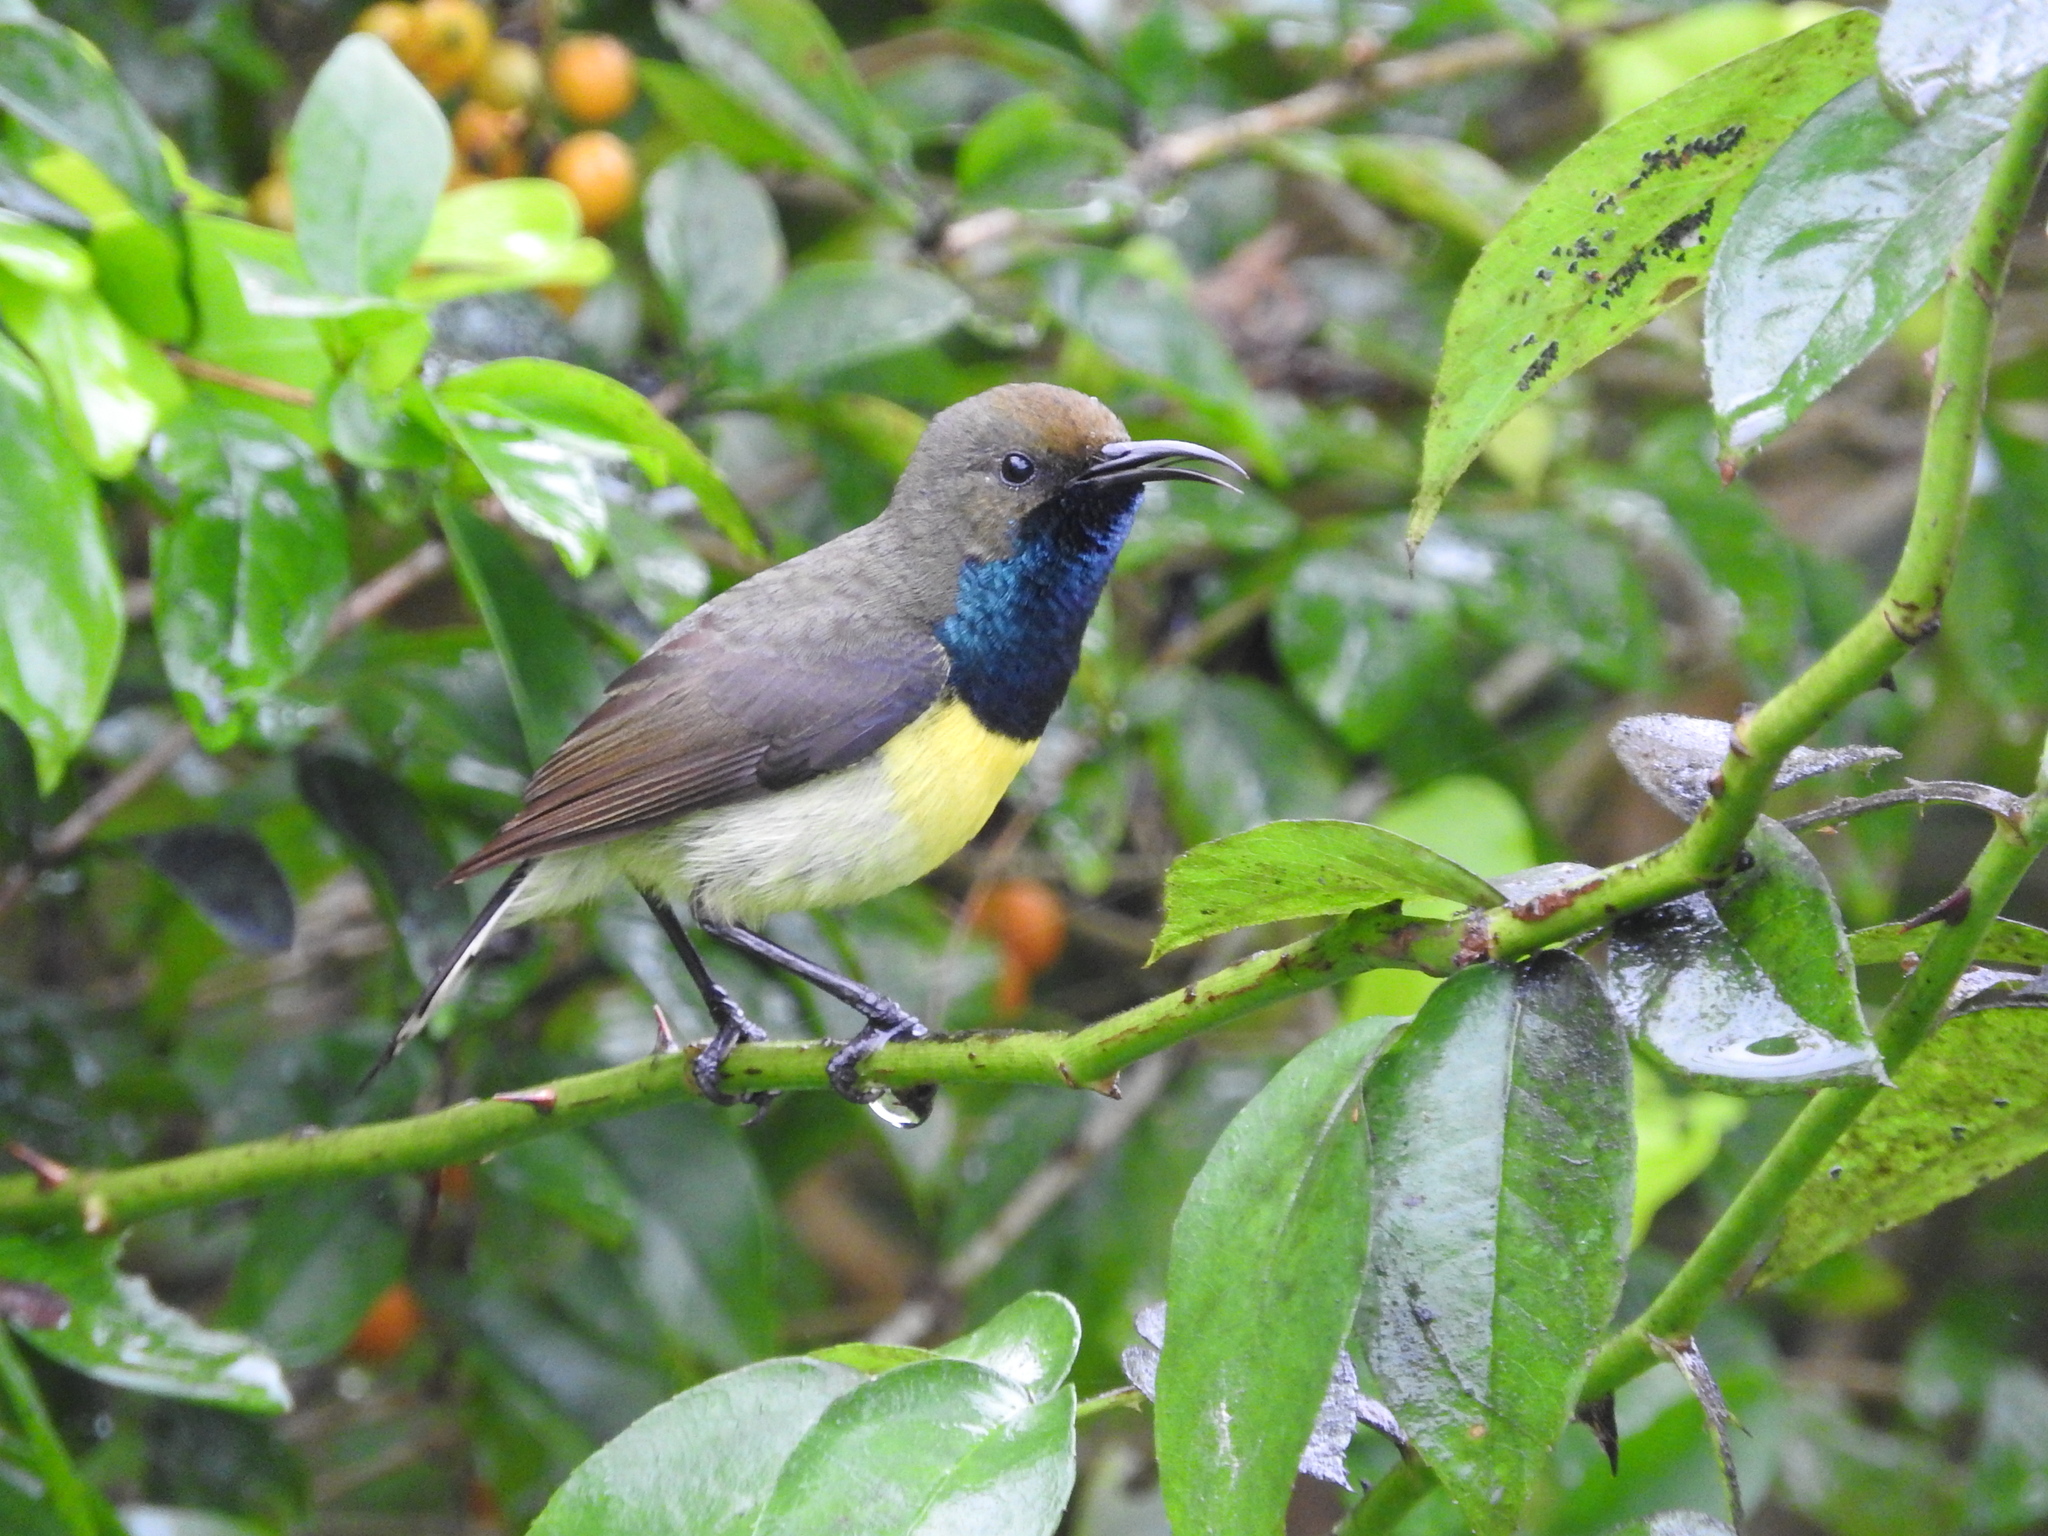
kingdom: Animalia
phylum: Chordata
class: Aves
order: Passeriformes
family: Nectariniidae
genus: Anabathmis
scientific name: Anabathmis newtonii
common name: Newton's sunbird
